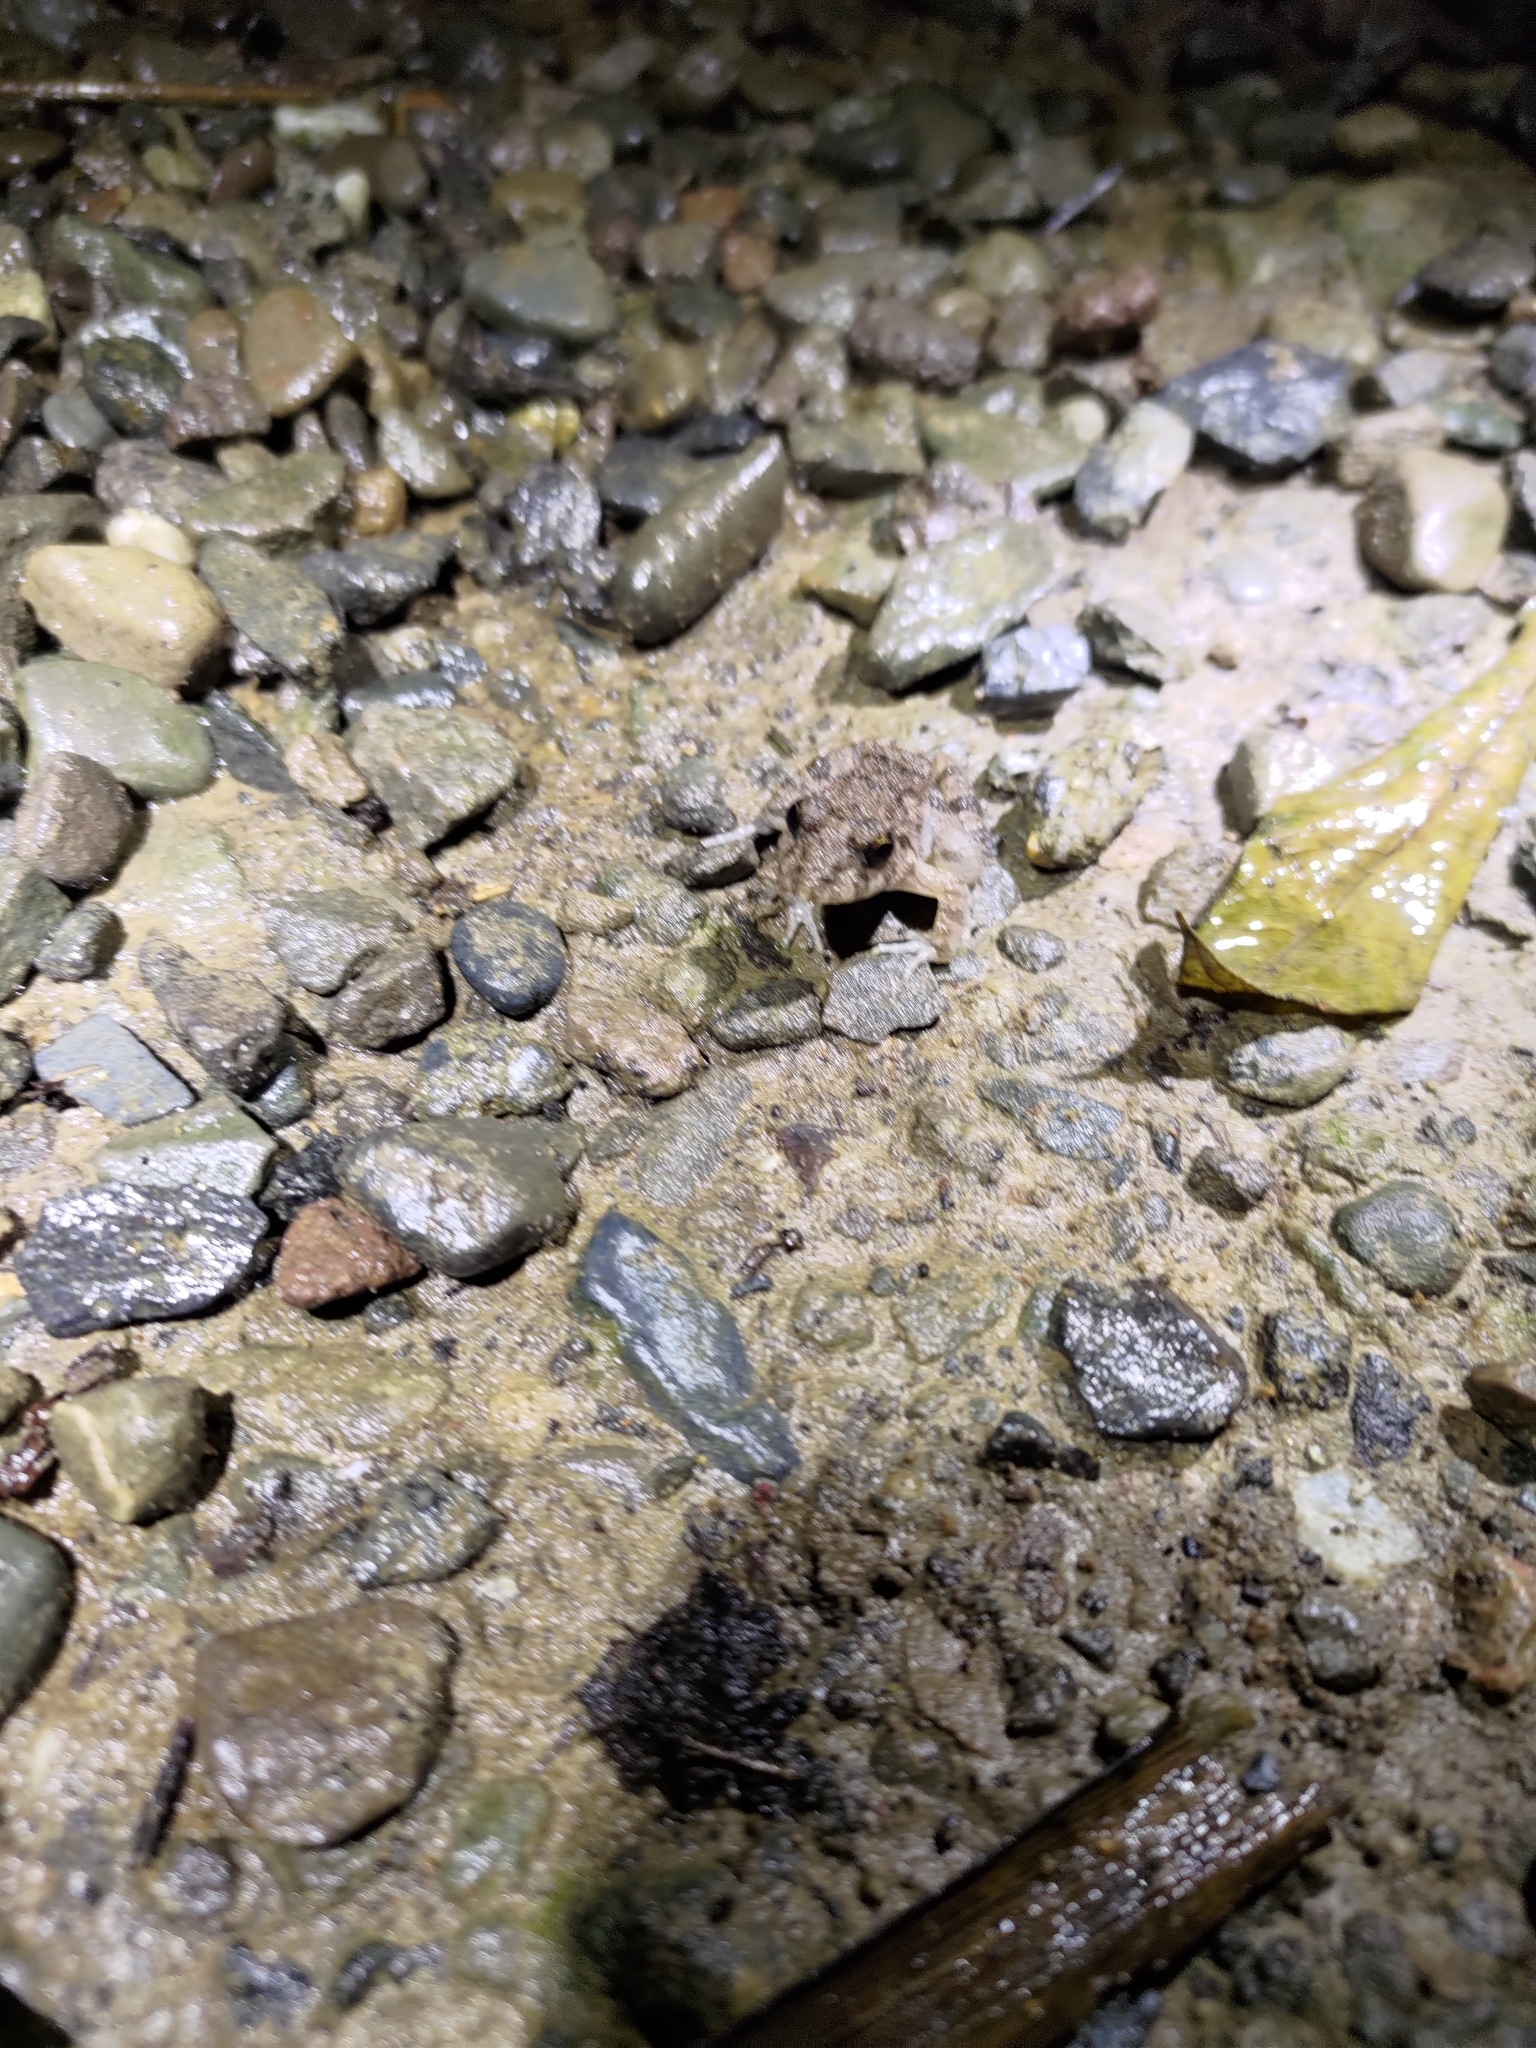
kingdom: Animalia
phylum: Chordata
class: Amphibia
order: Anura
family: Dicroglossidae
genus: Fejervarya
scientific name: Fejervarya limnocharis
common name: Asian grass frog/common pond frog/field frog/grass frog/indian rice frog
